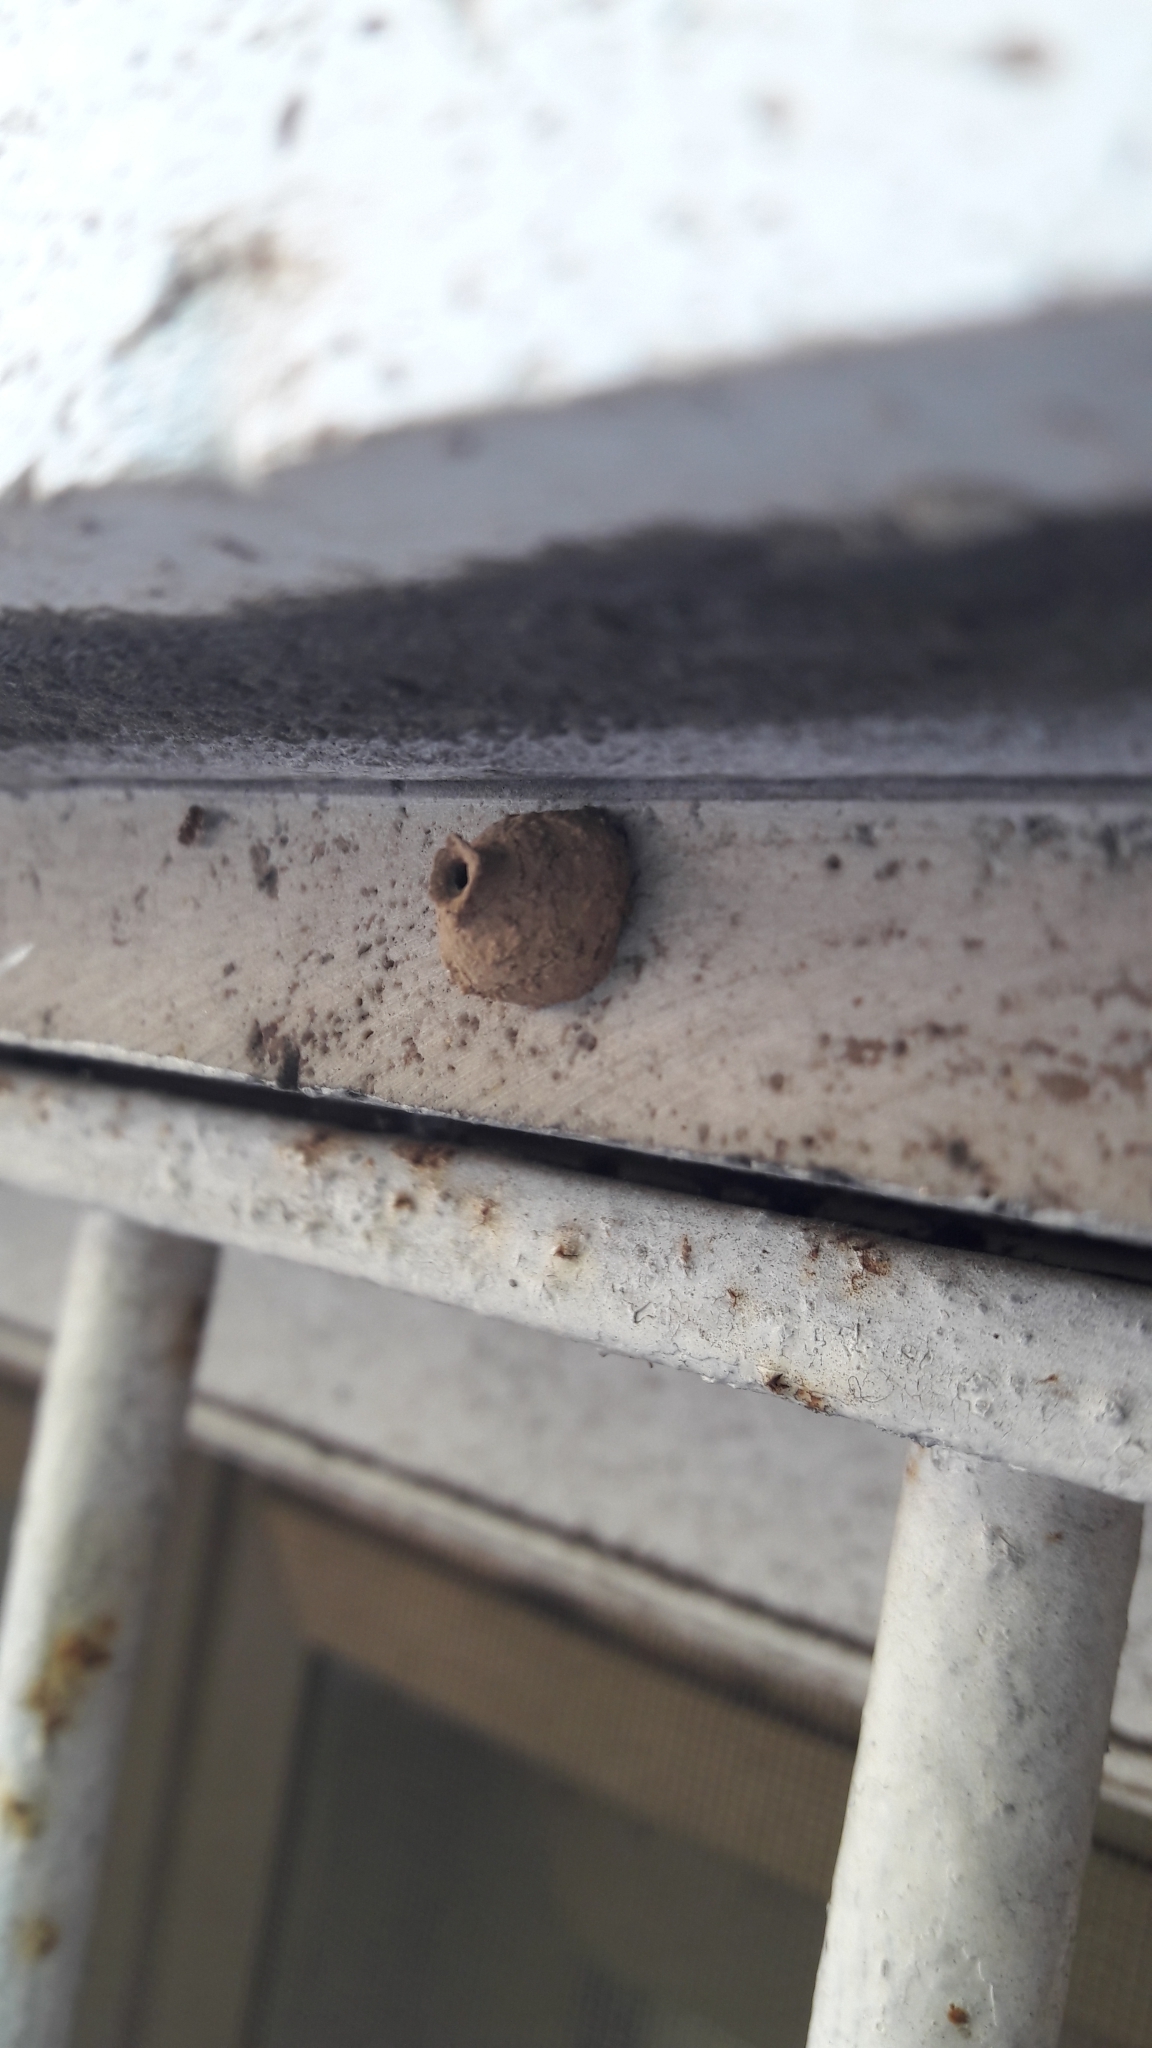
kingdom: Animalia
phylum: Arthropoda
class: Insecta
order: Hymenoptera
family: Eumenidae
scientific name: Eumenidae
